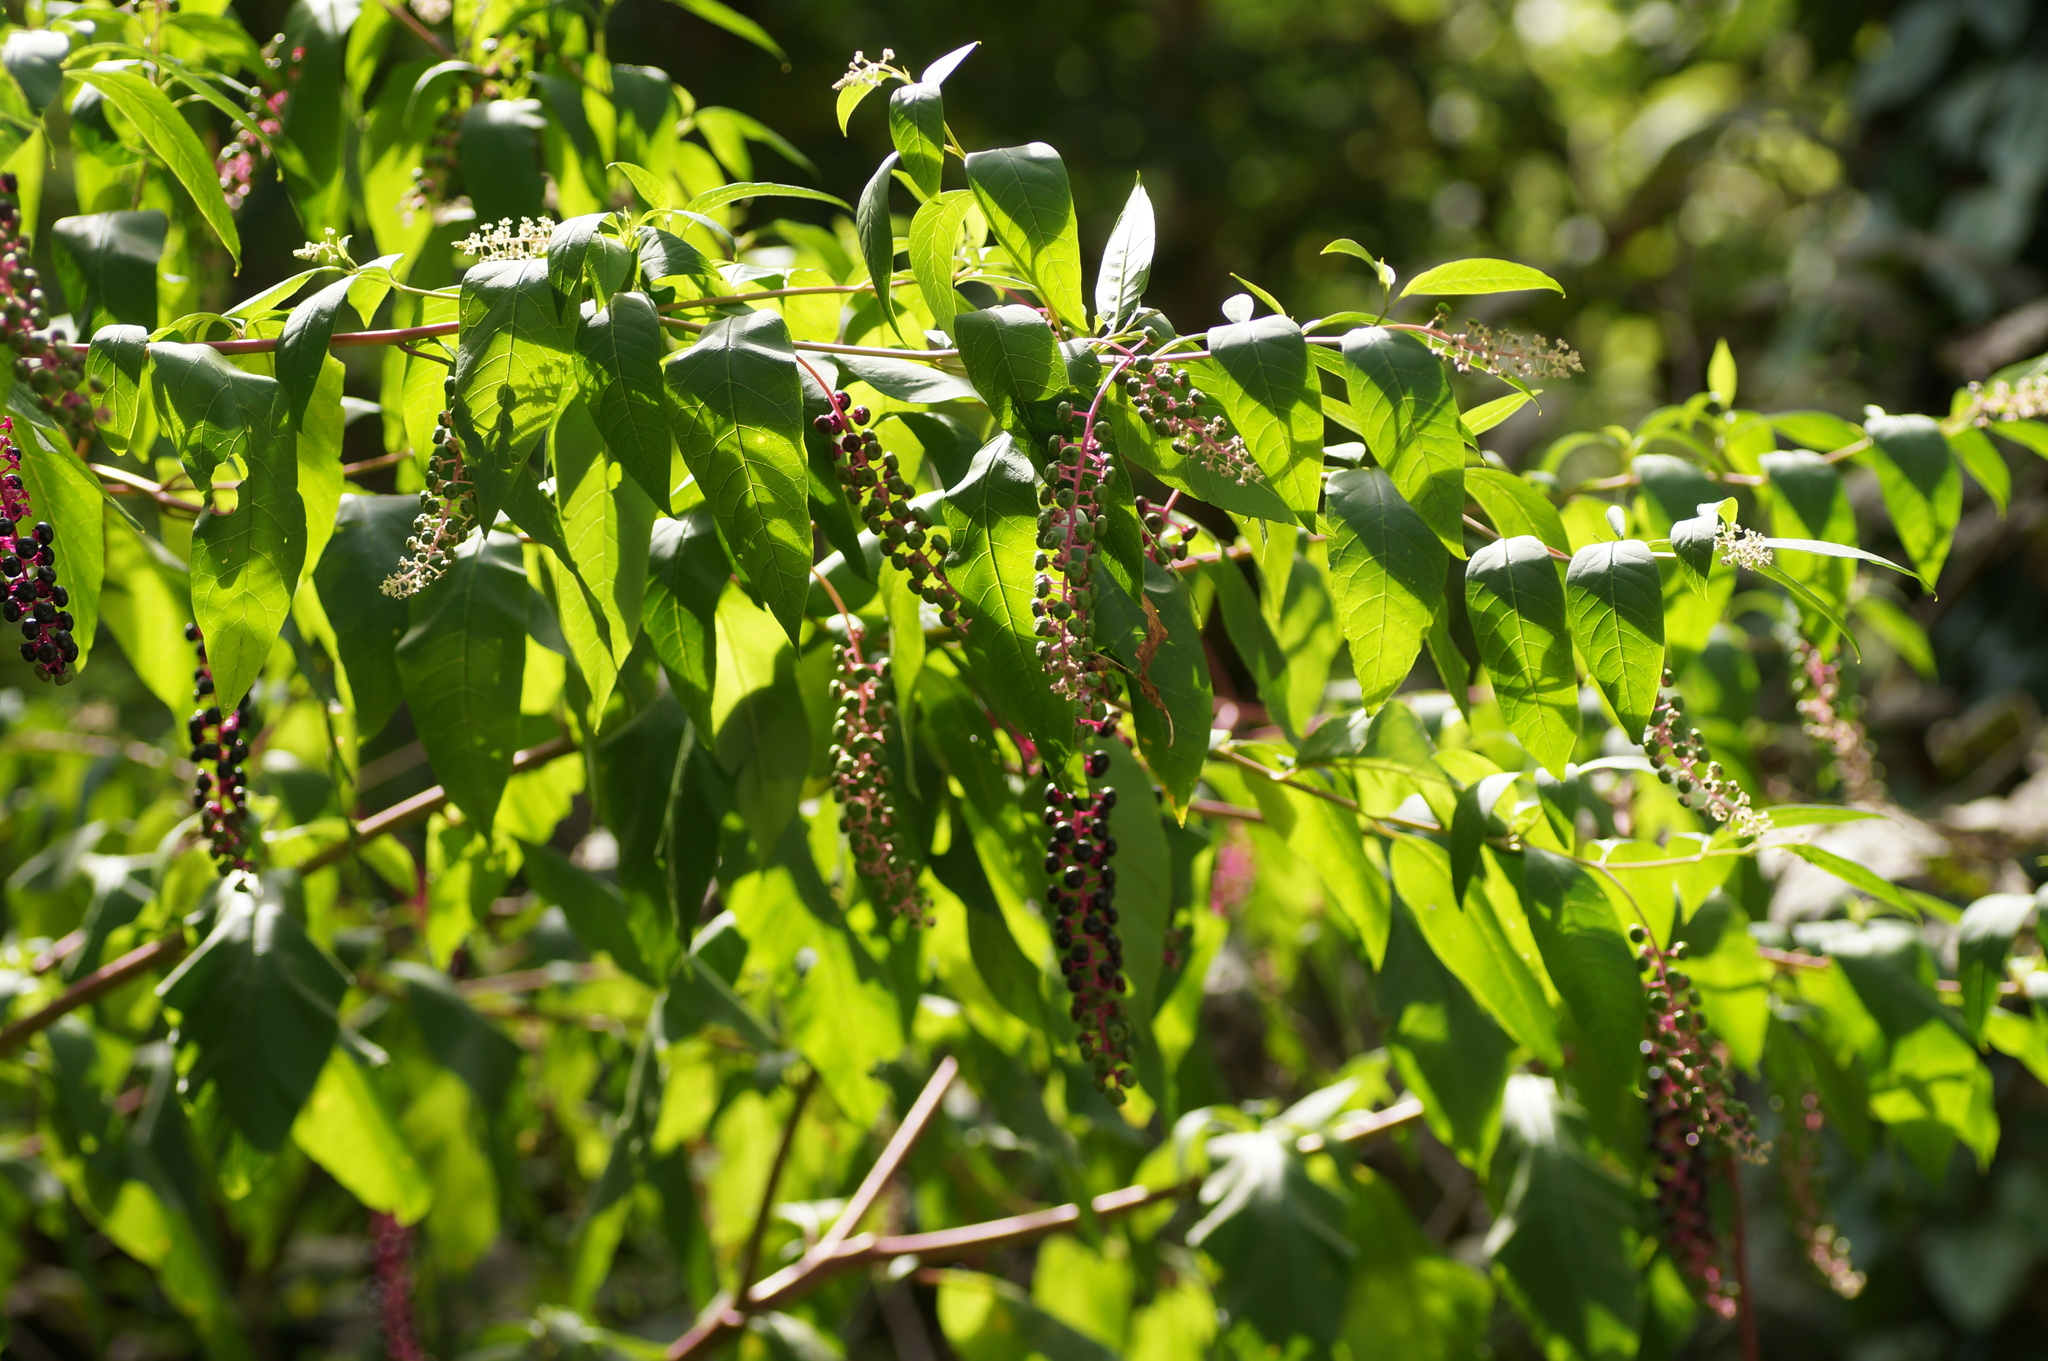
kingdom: Plantae
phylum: Tracheophyta
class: Magnoliopsida
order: Caryophyllales
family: Phytolaccaceae
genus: Phytolacca
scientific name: Phytolacca americana
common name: American pokeweed
